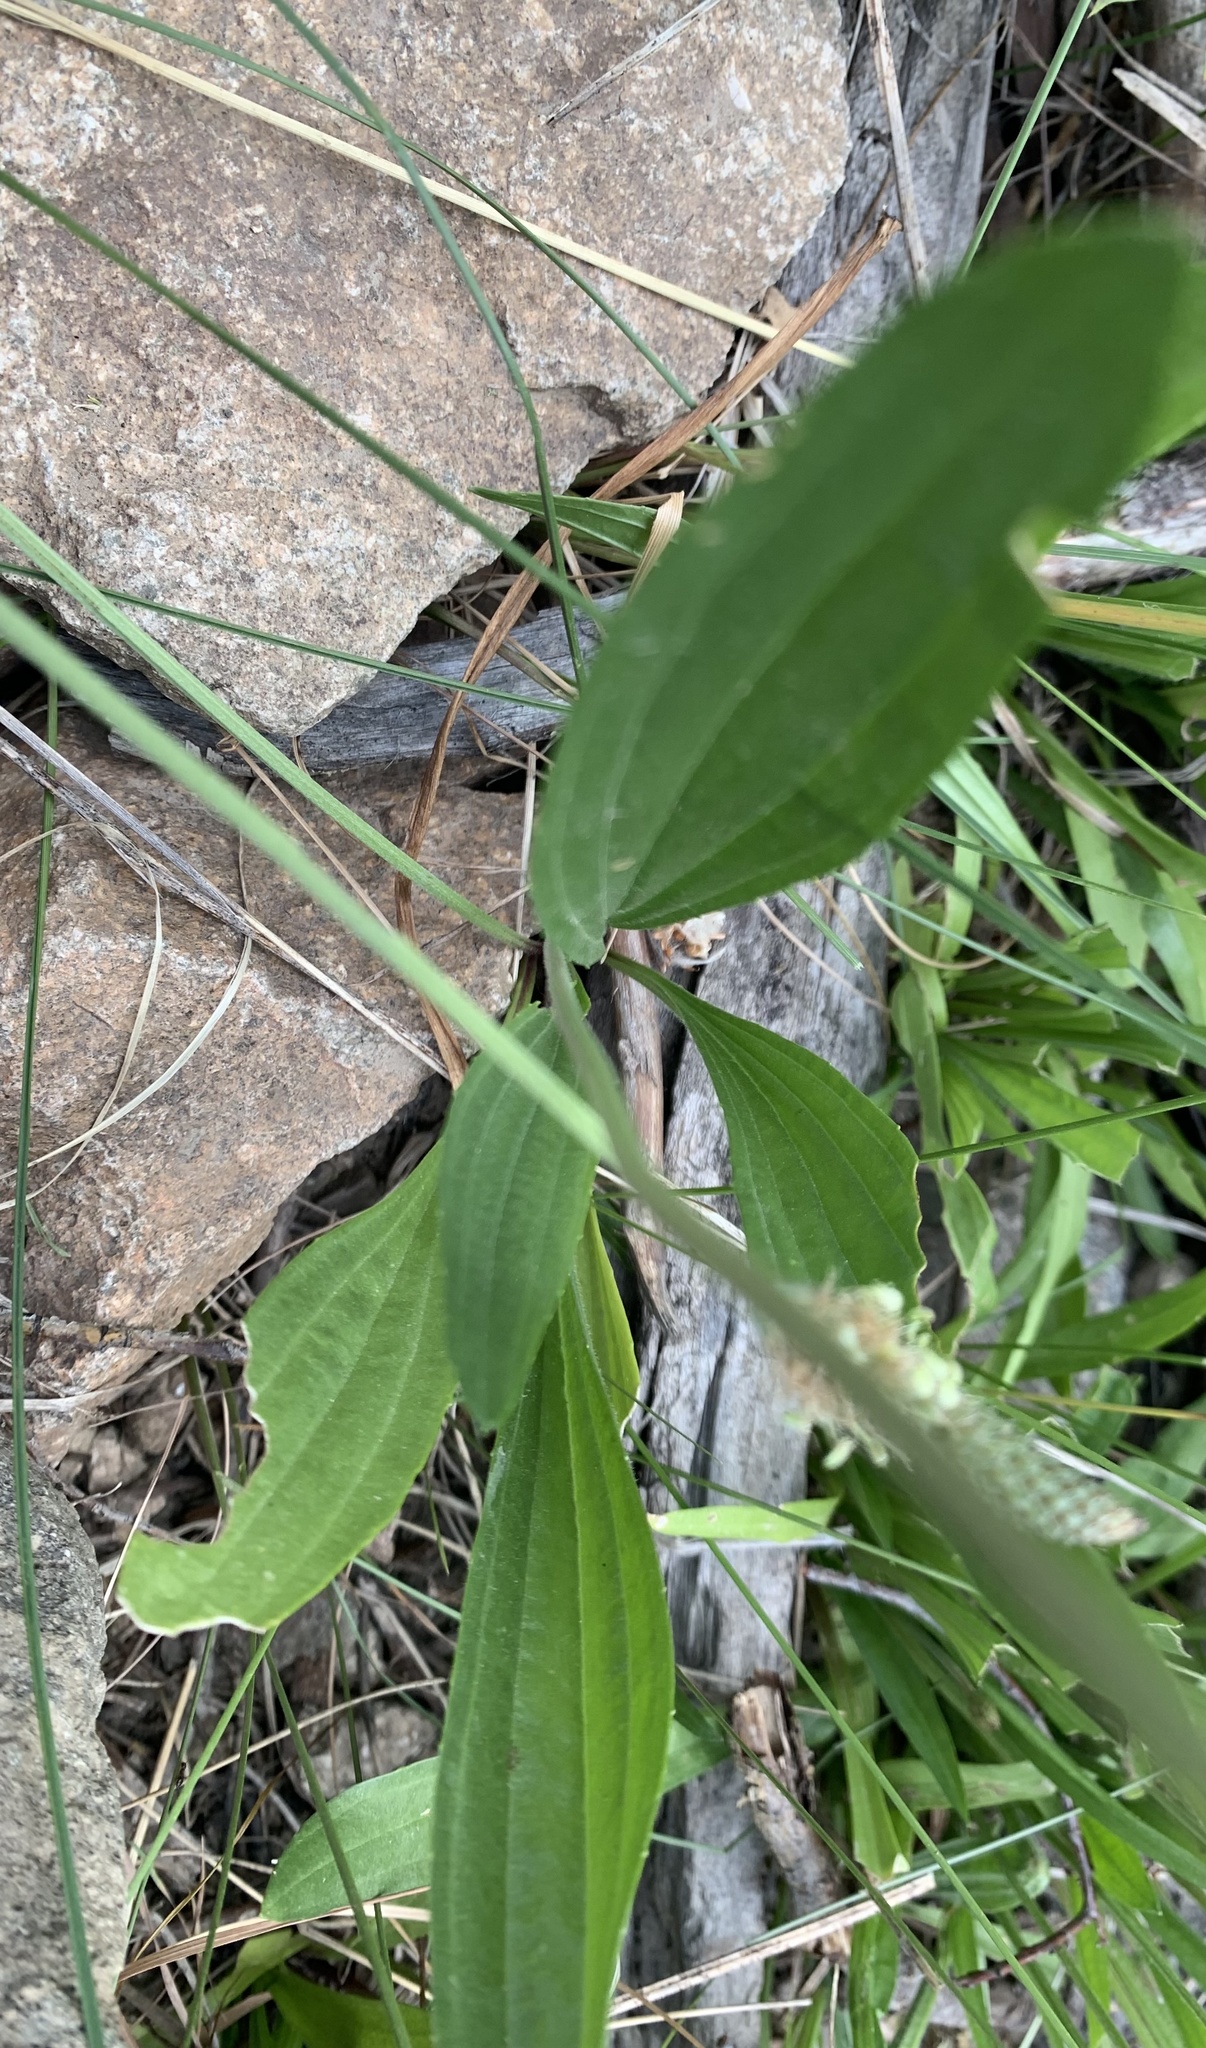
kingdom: Plantae
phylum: Tracheophyta
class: Magnoliopsida
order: Lamiales
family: Plantaginaceae
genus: Plantago
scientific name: Plantago lanceolata
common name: Ribwort plantain
